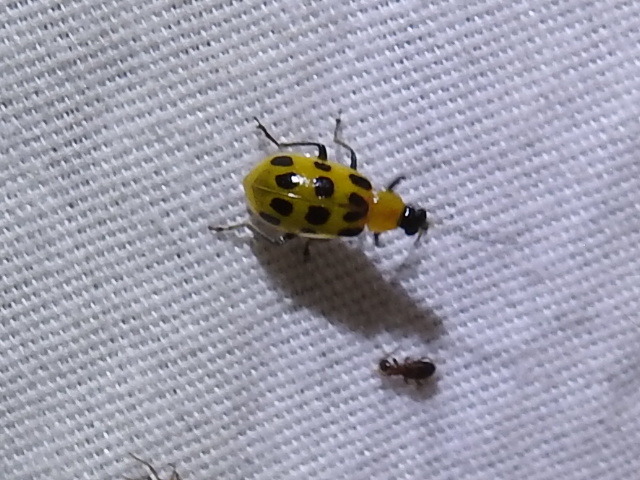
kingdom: Animalia
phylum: Arthropoda
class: Insecta
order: Coleoptera
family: Chrysomelidae
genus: Diabrotica
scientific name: Diabrotica undecimpunctata
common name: Spotted cucumber beetle
